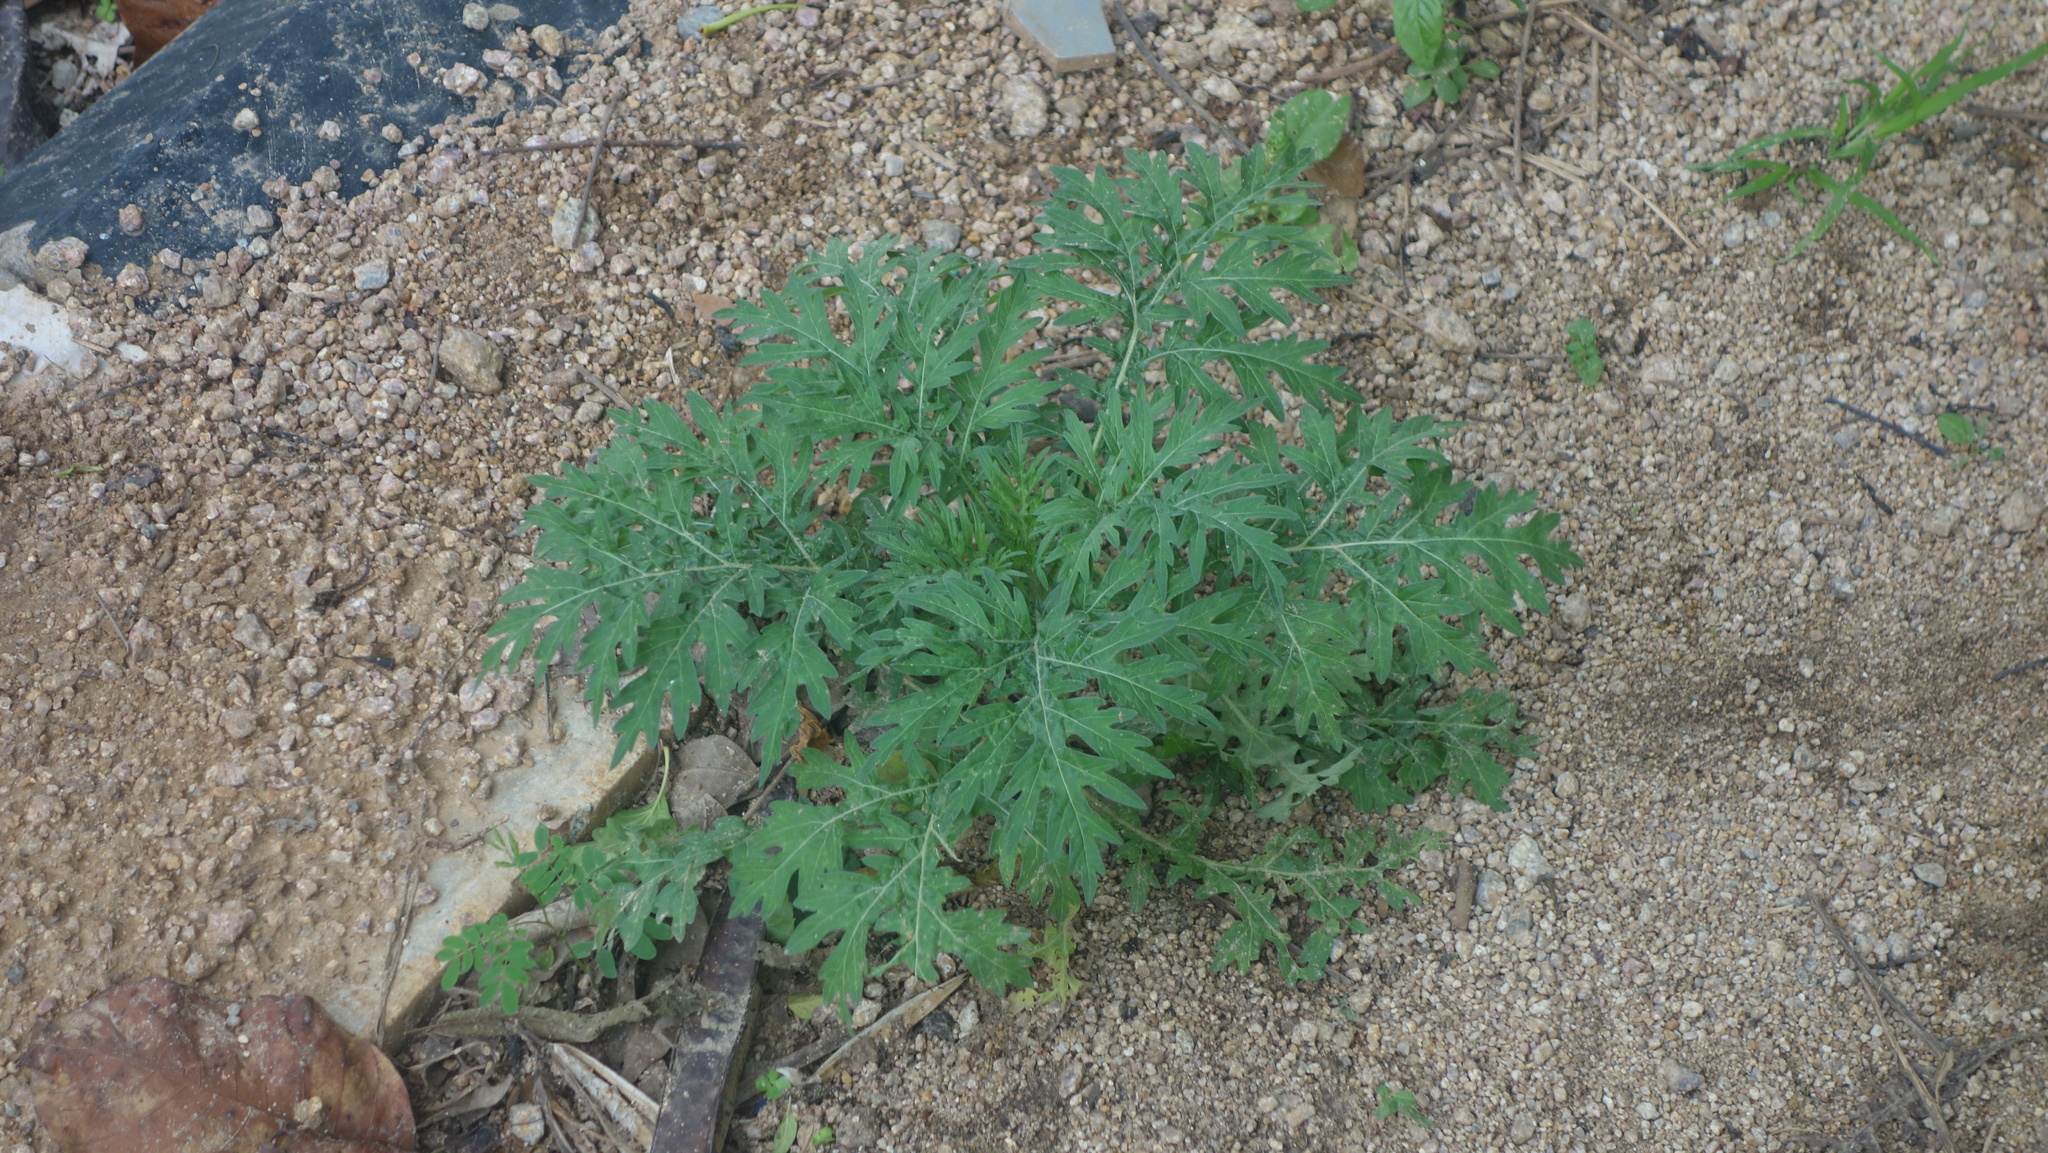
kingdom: Plantae
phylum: Tracheophyta
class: Magnoliopsida
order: Asterales
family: Asteraceae
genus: Parthenium
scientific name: Parthenium hysterophorus
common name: Santa maria feverfew
